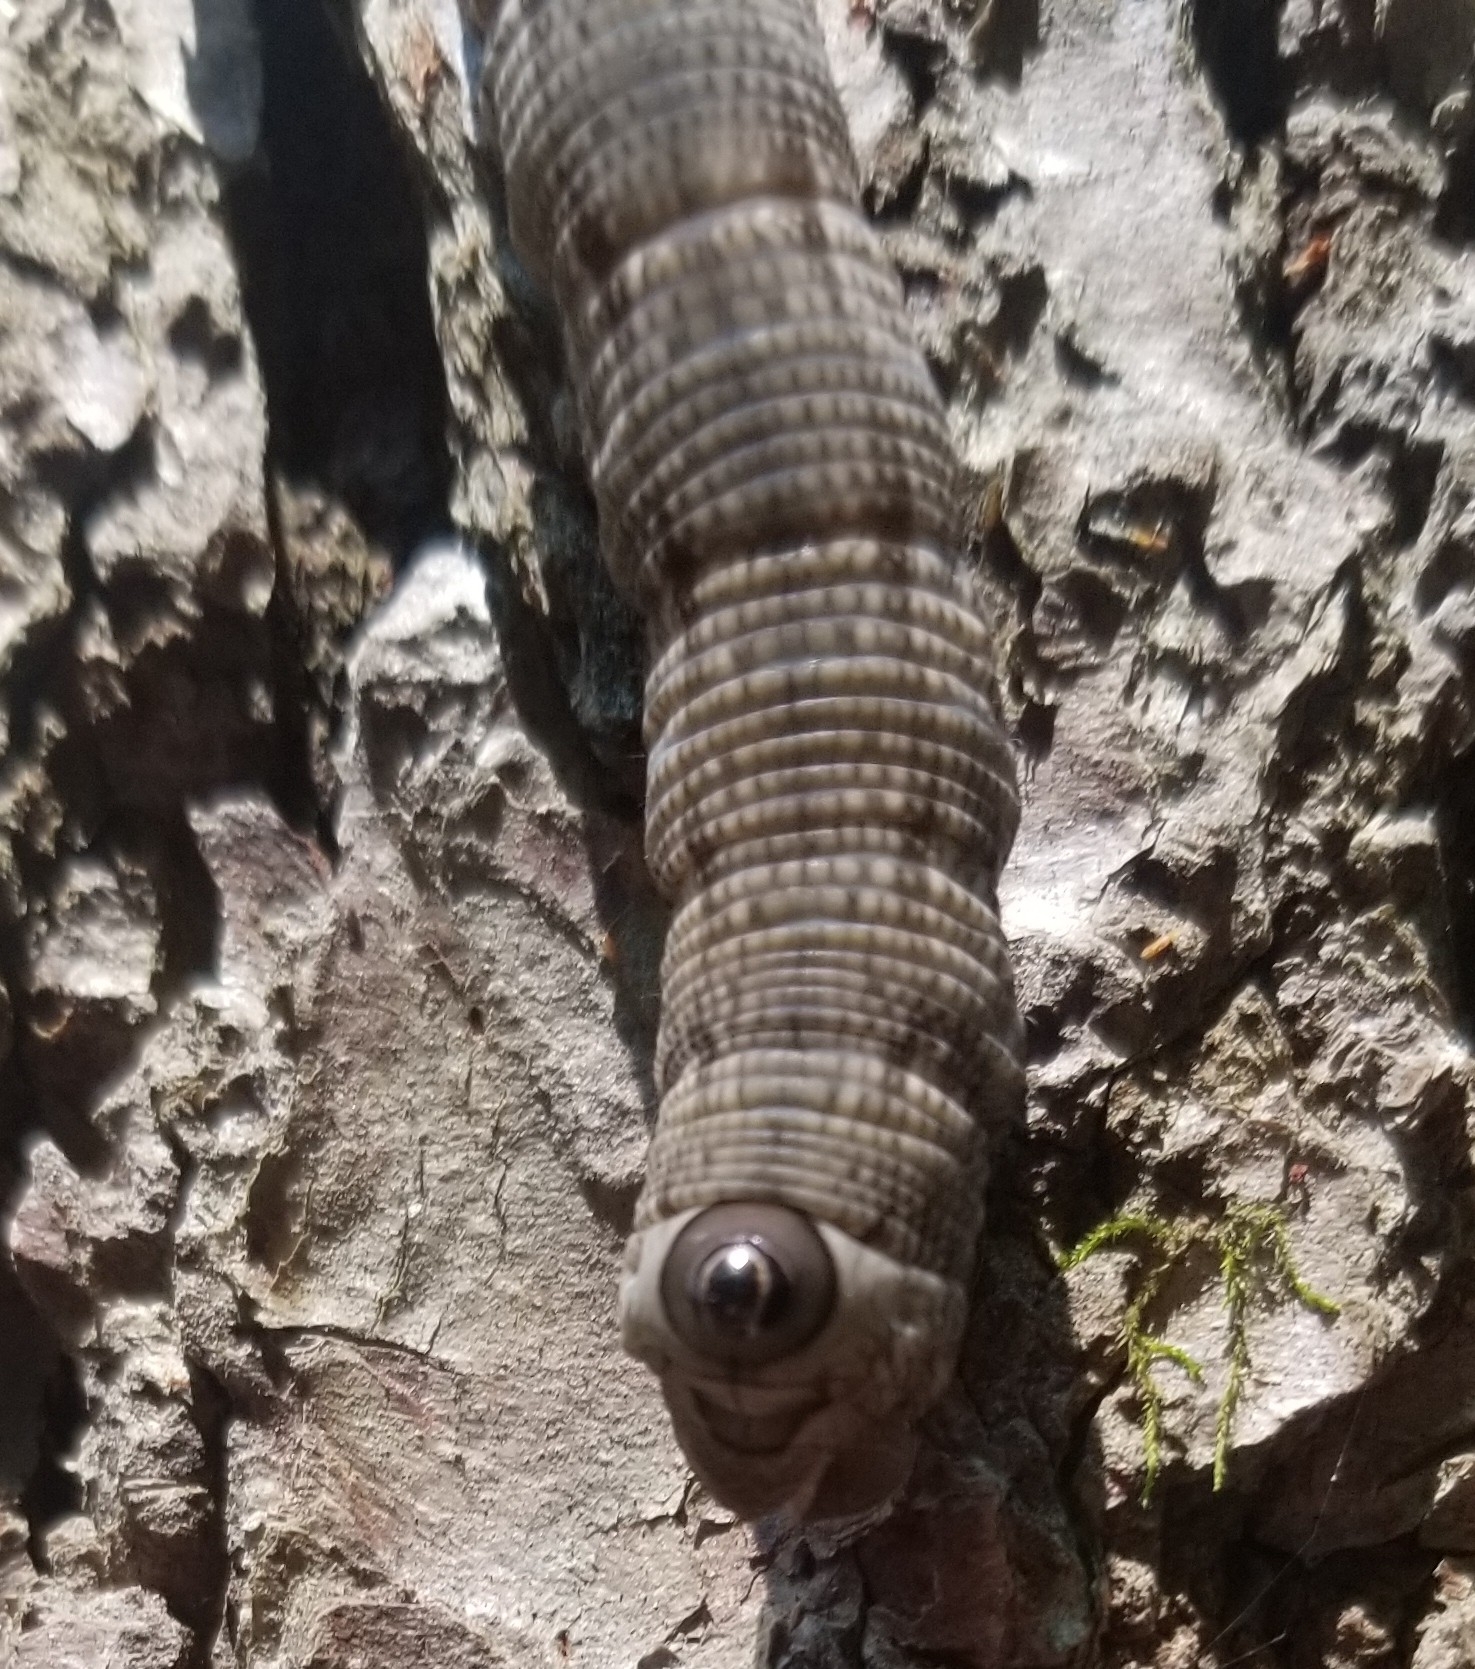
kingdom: Animalia
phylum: Arthropoda
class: Insecta
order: Lepidoptera
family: Sphingidae
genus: Sphecodina
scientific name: Sphecodina abbottii
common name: Abbott's sphinx
